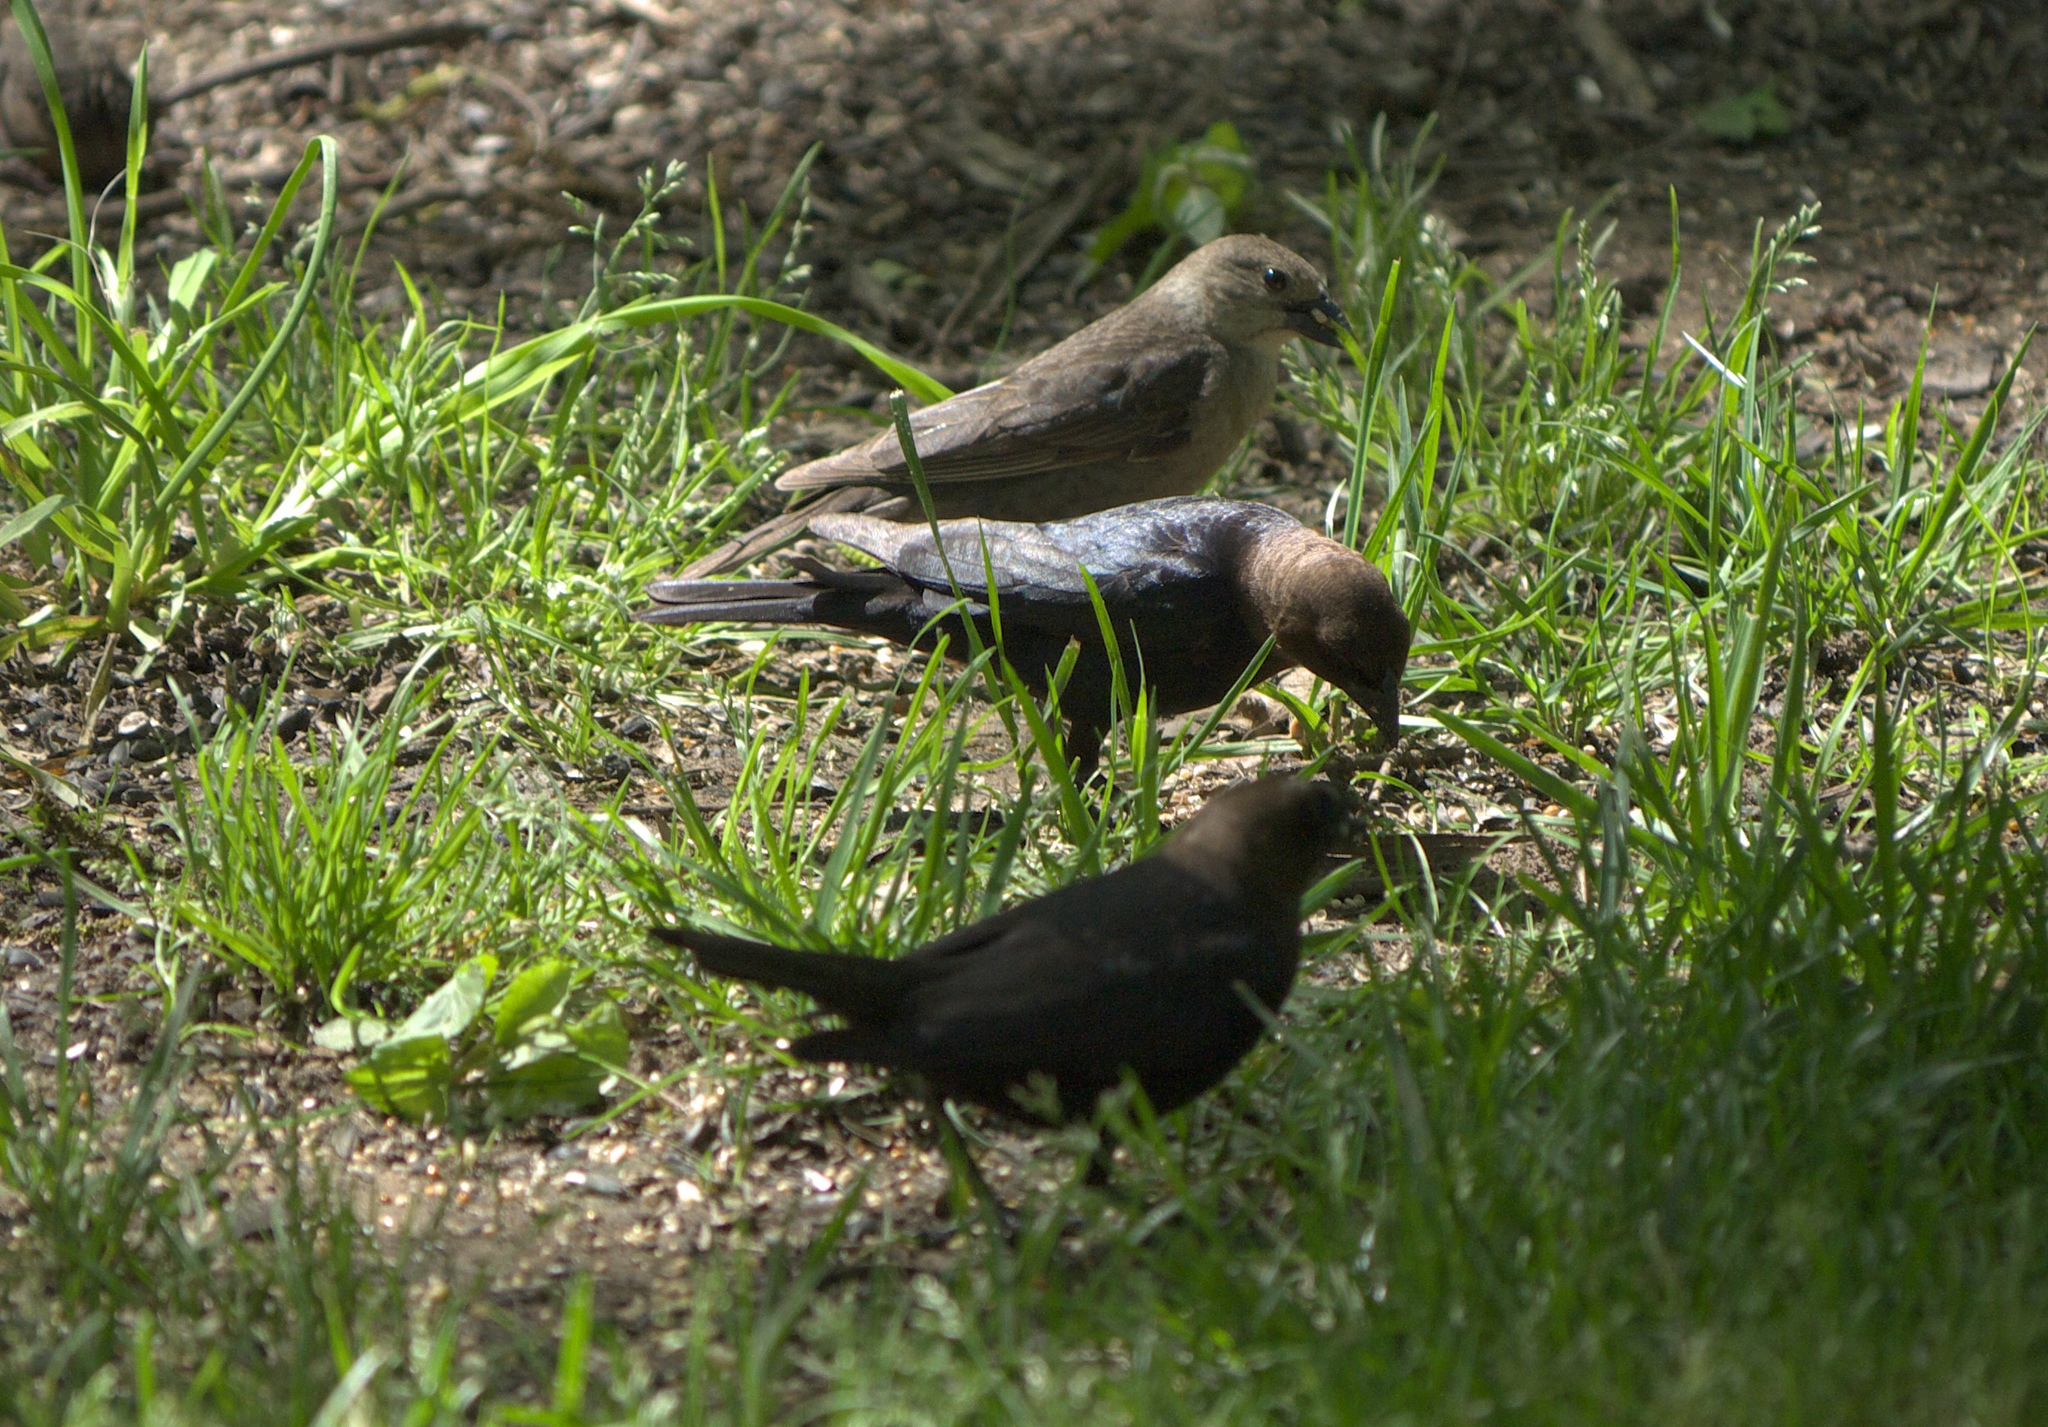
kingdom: Animalia
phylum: Chordata
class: Aves
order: Passeriformes
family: Icteridae
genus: Molothrus
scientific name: Molothrus ater
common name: Brown-headed cowbird
